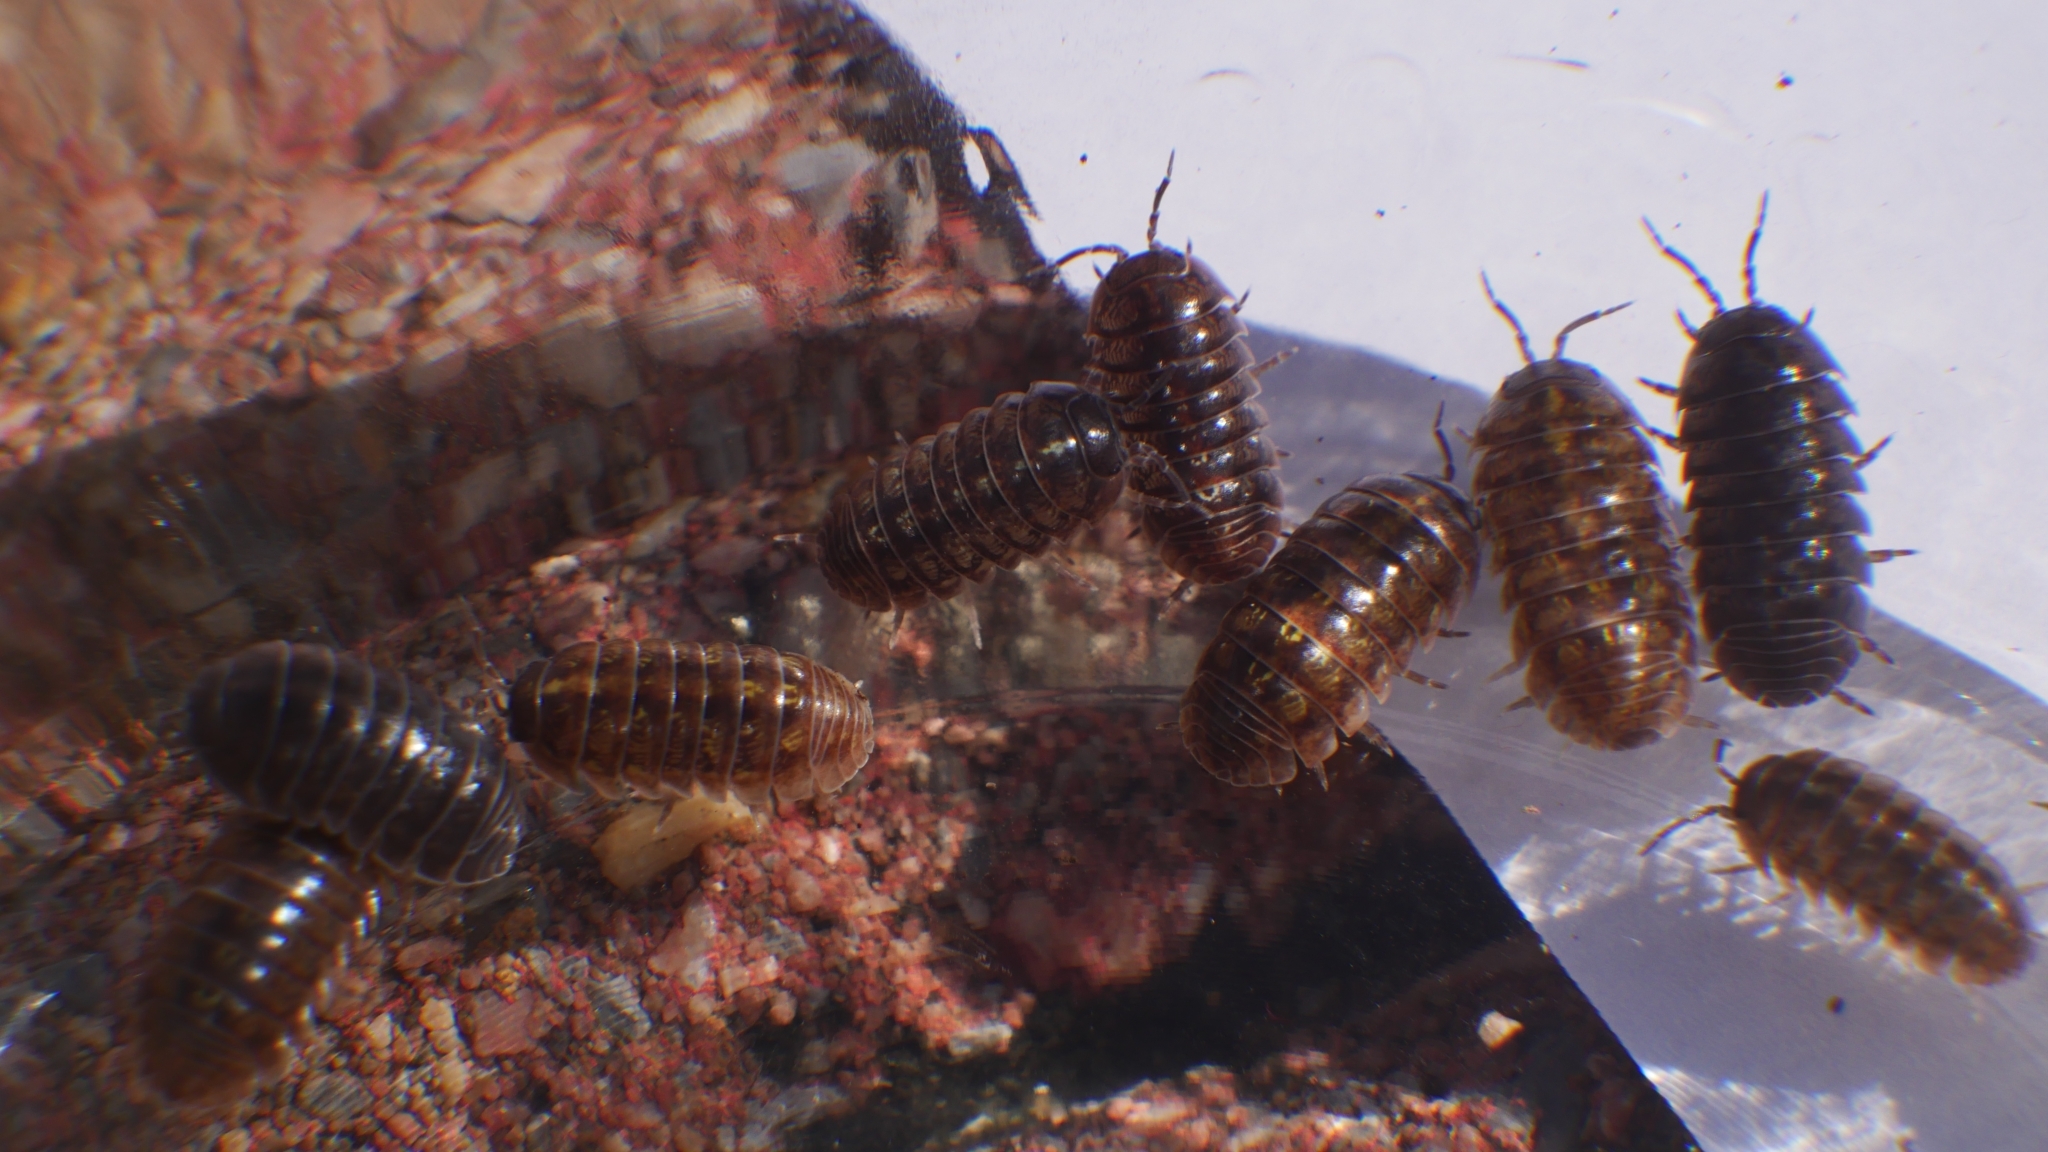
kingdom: Animalia
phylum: Arthropoda
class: Malacostraca
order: Isopoda
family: Armadillidiidae
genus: Armadillidium
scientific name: Armadillidium vulgare
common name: Common pill woodlouse
